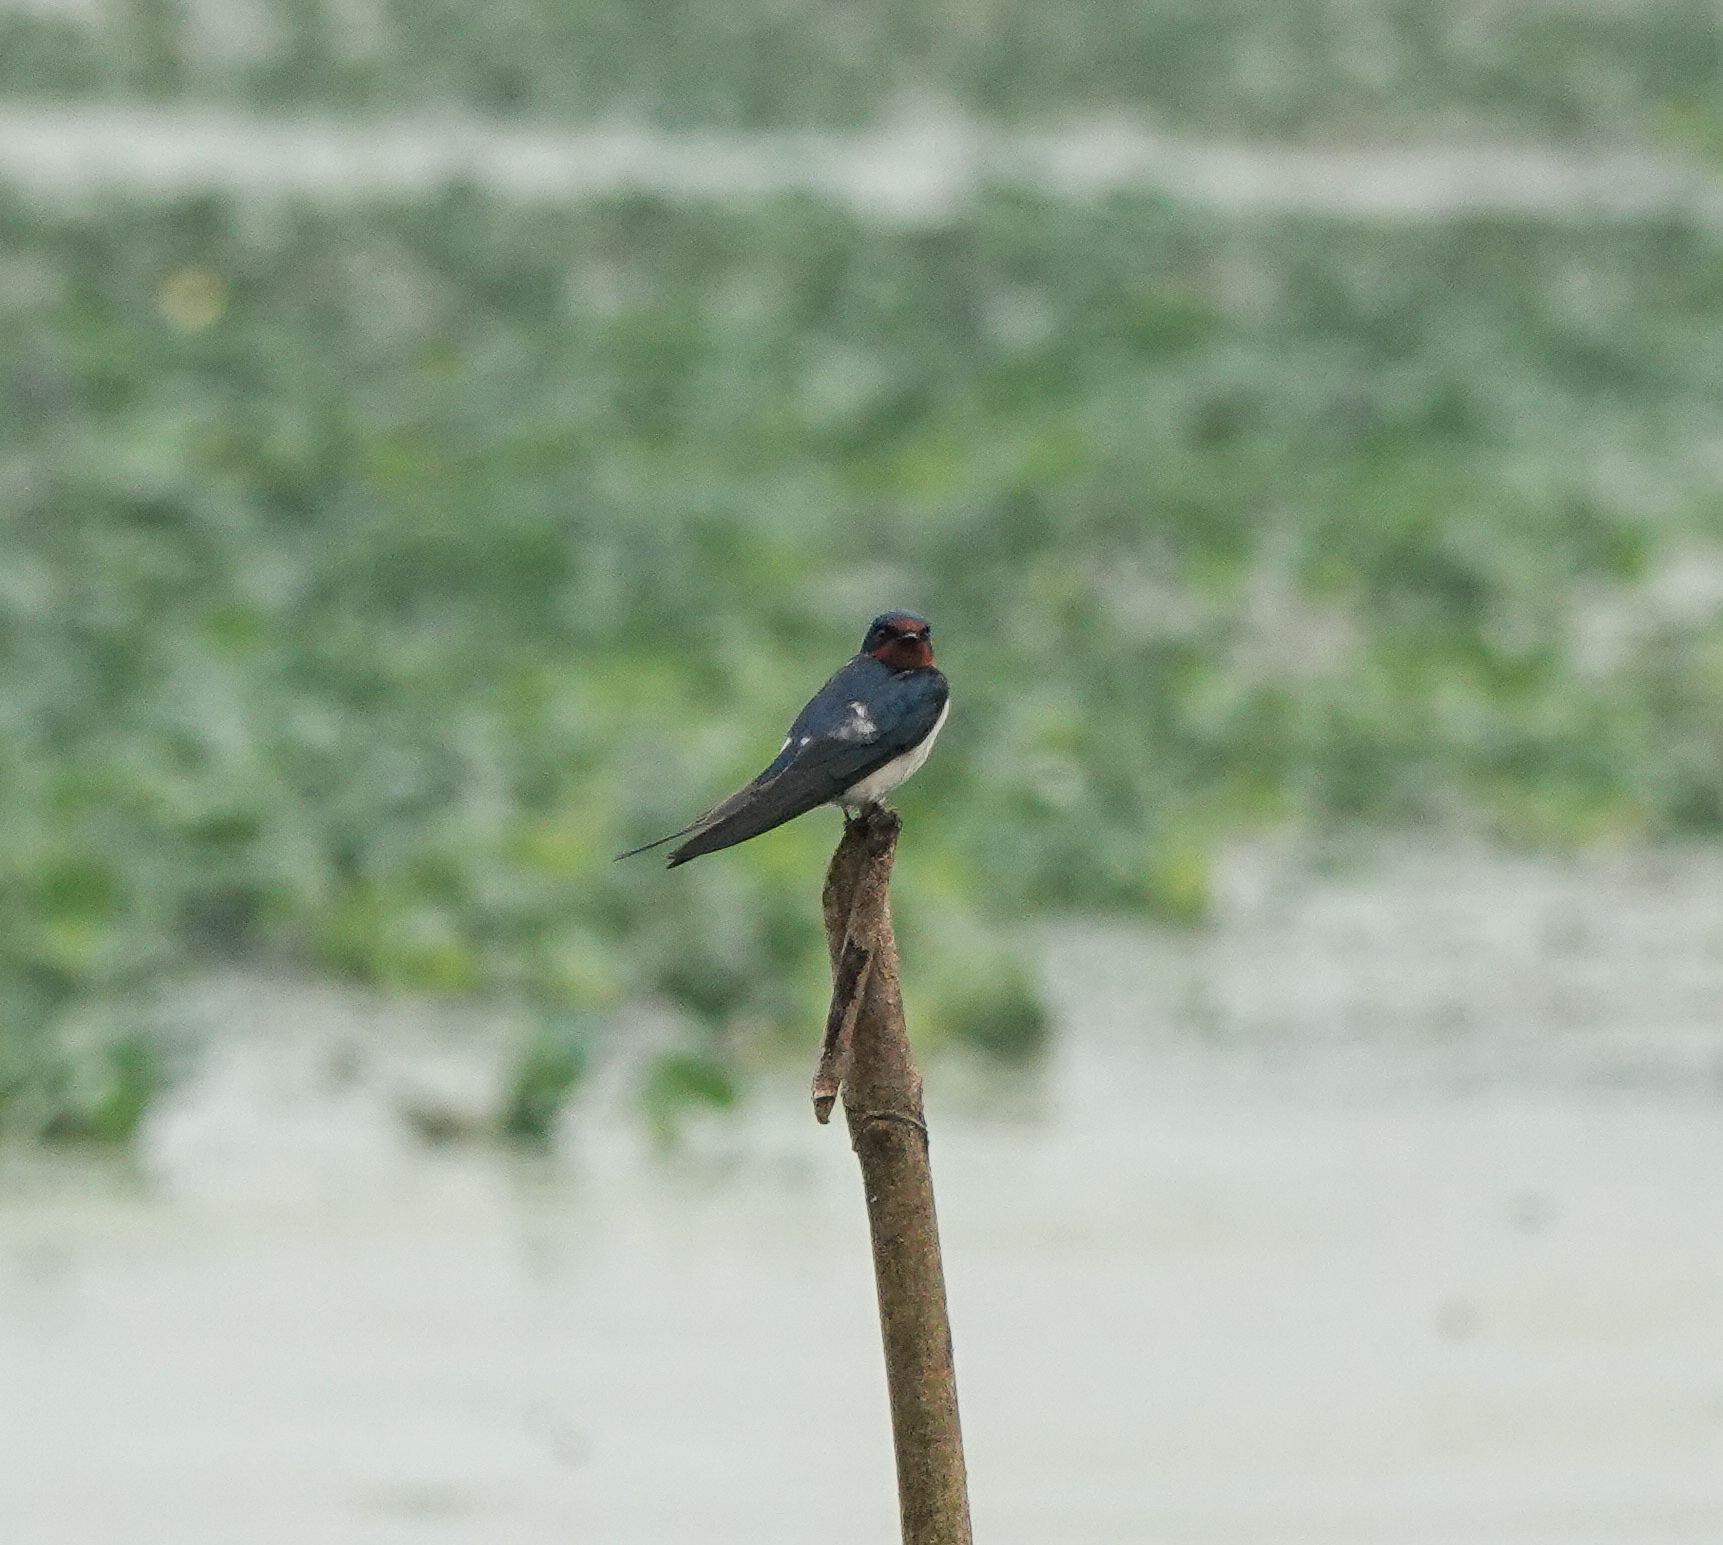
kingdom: Animalia
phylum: Chordata
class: Aves
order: Passeriformes
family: Hirundinidae
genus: Hirundo
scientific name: Hirundo rustica
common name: Barn swallow
